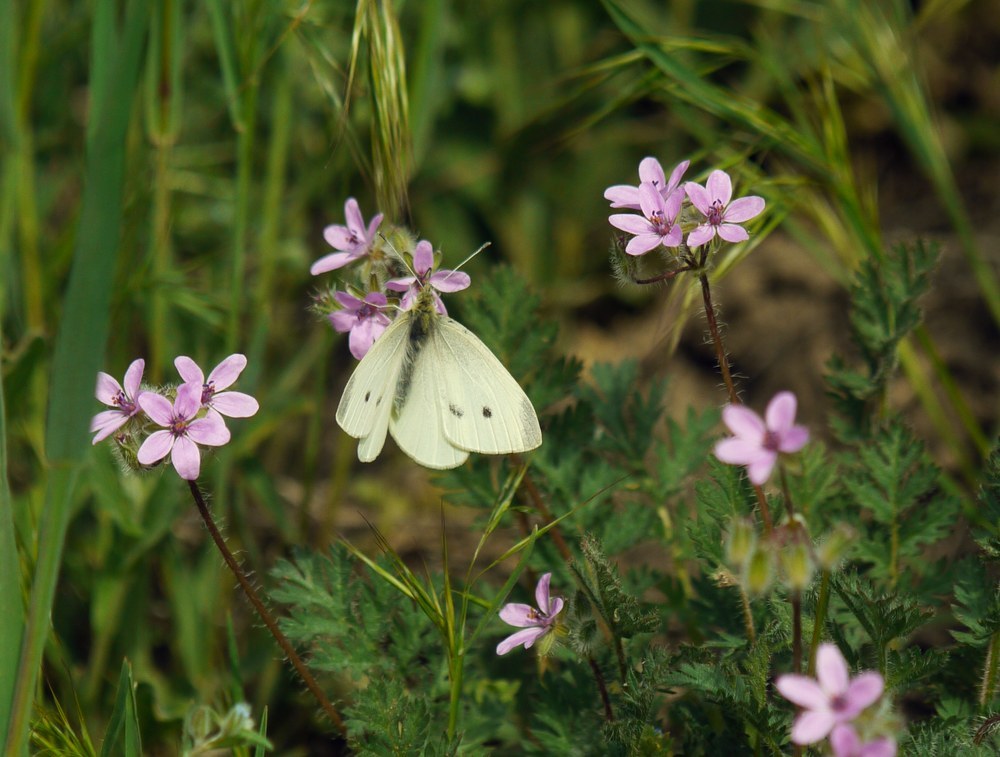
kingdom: Animalia
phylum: Arthropoda
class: Insecta
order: Lepidoptera
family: Pieridae
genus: Pieris
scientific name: Pieris rapae
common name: Small white
